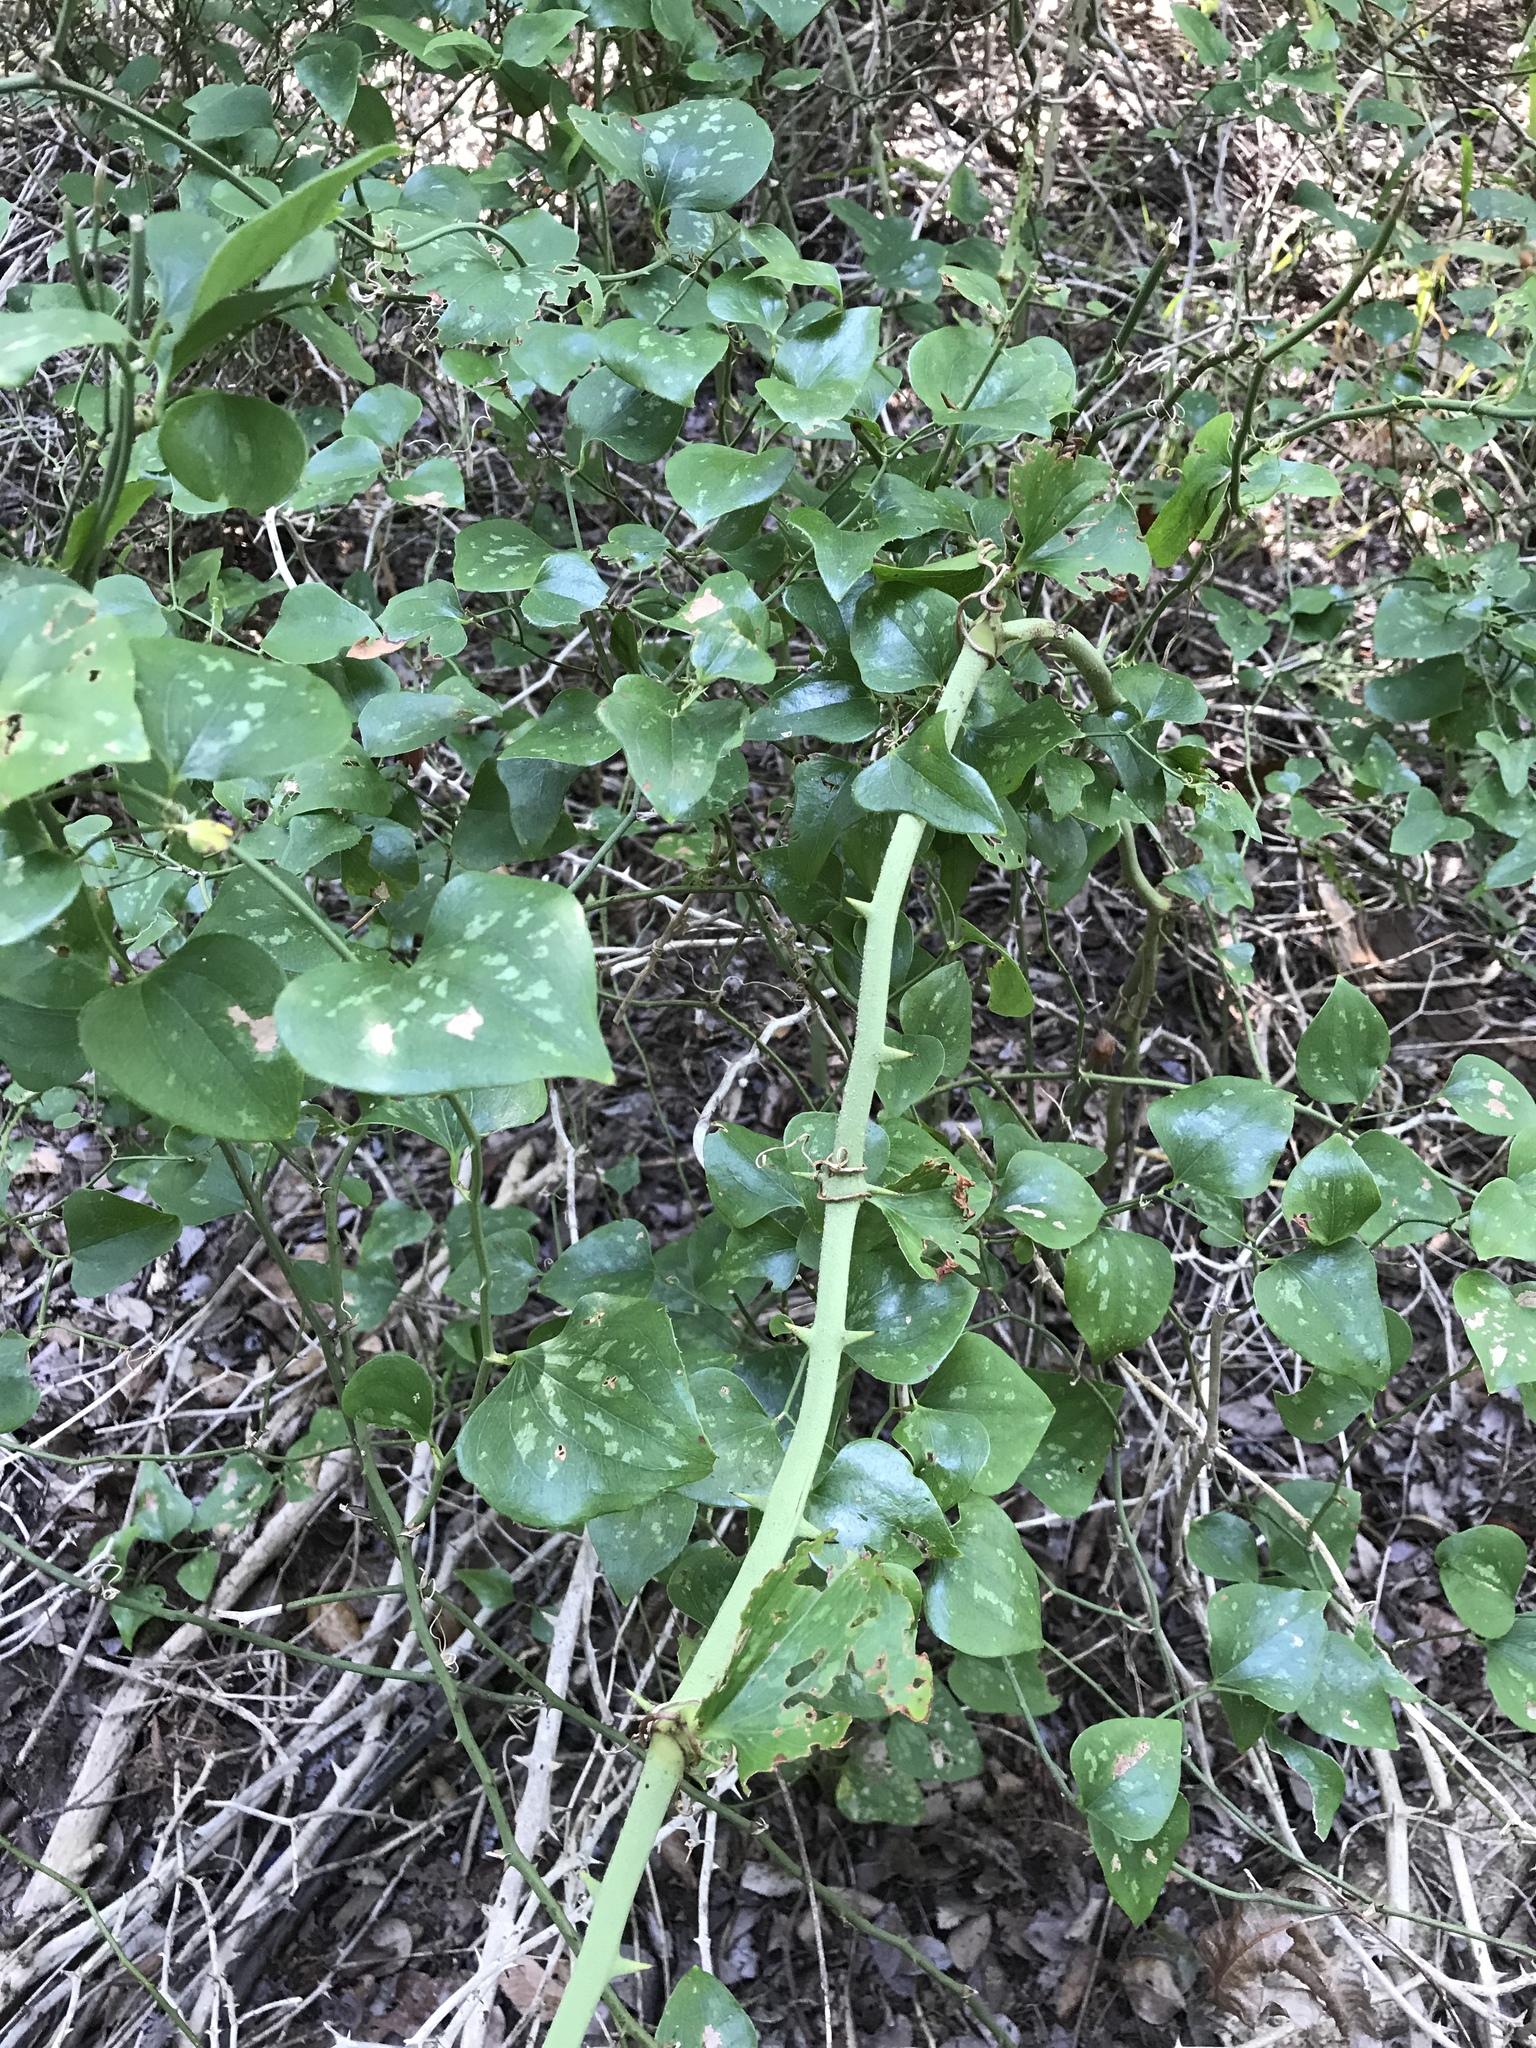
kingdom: Plantae
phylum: Tracheophyta
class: Liliopsida
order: Liliales
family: Smilacaceae
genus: Smilax
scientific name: Smilax bona-nox
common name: Catbrier
